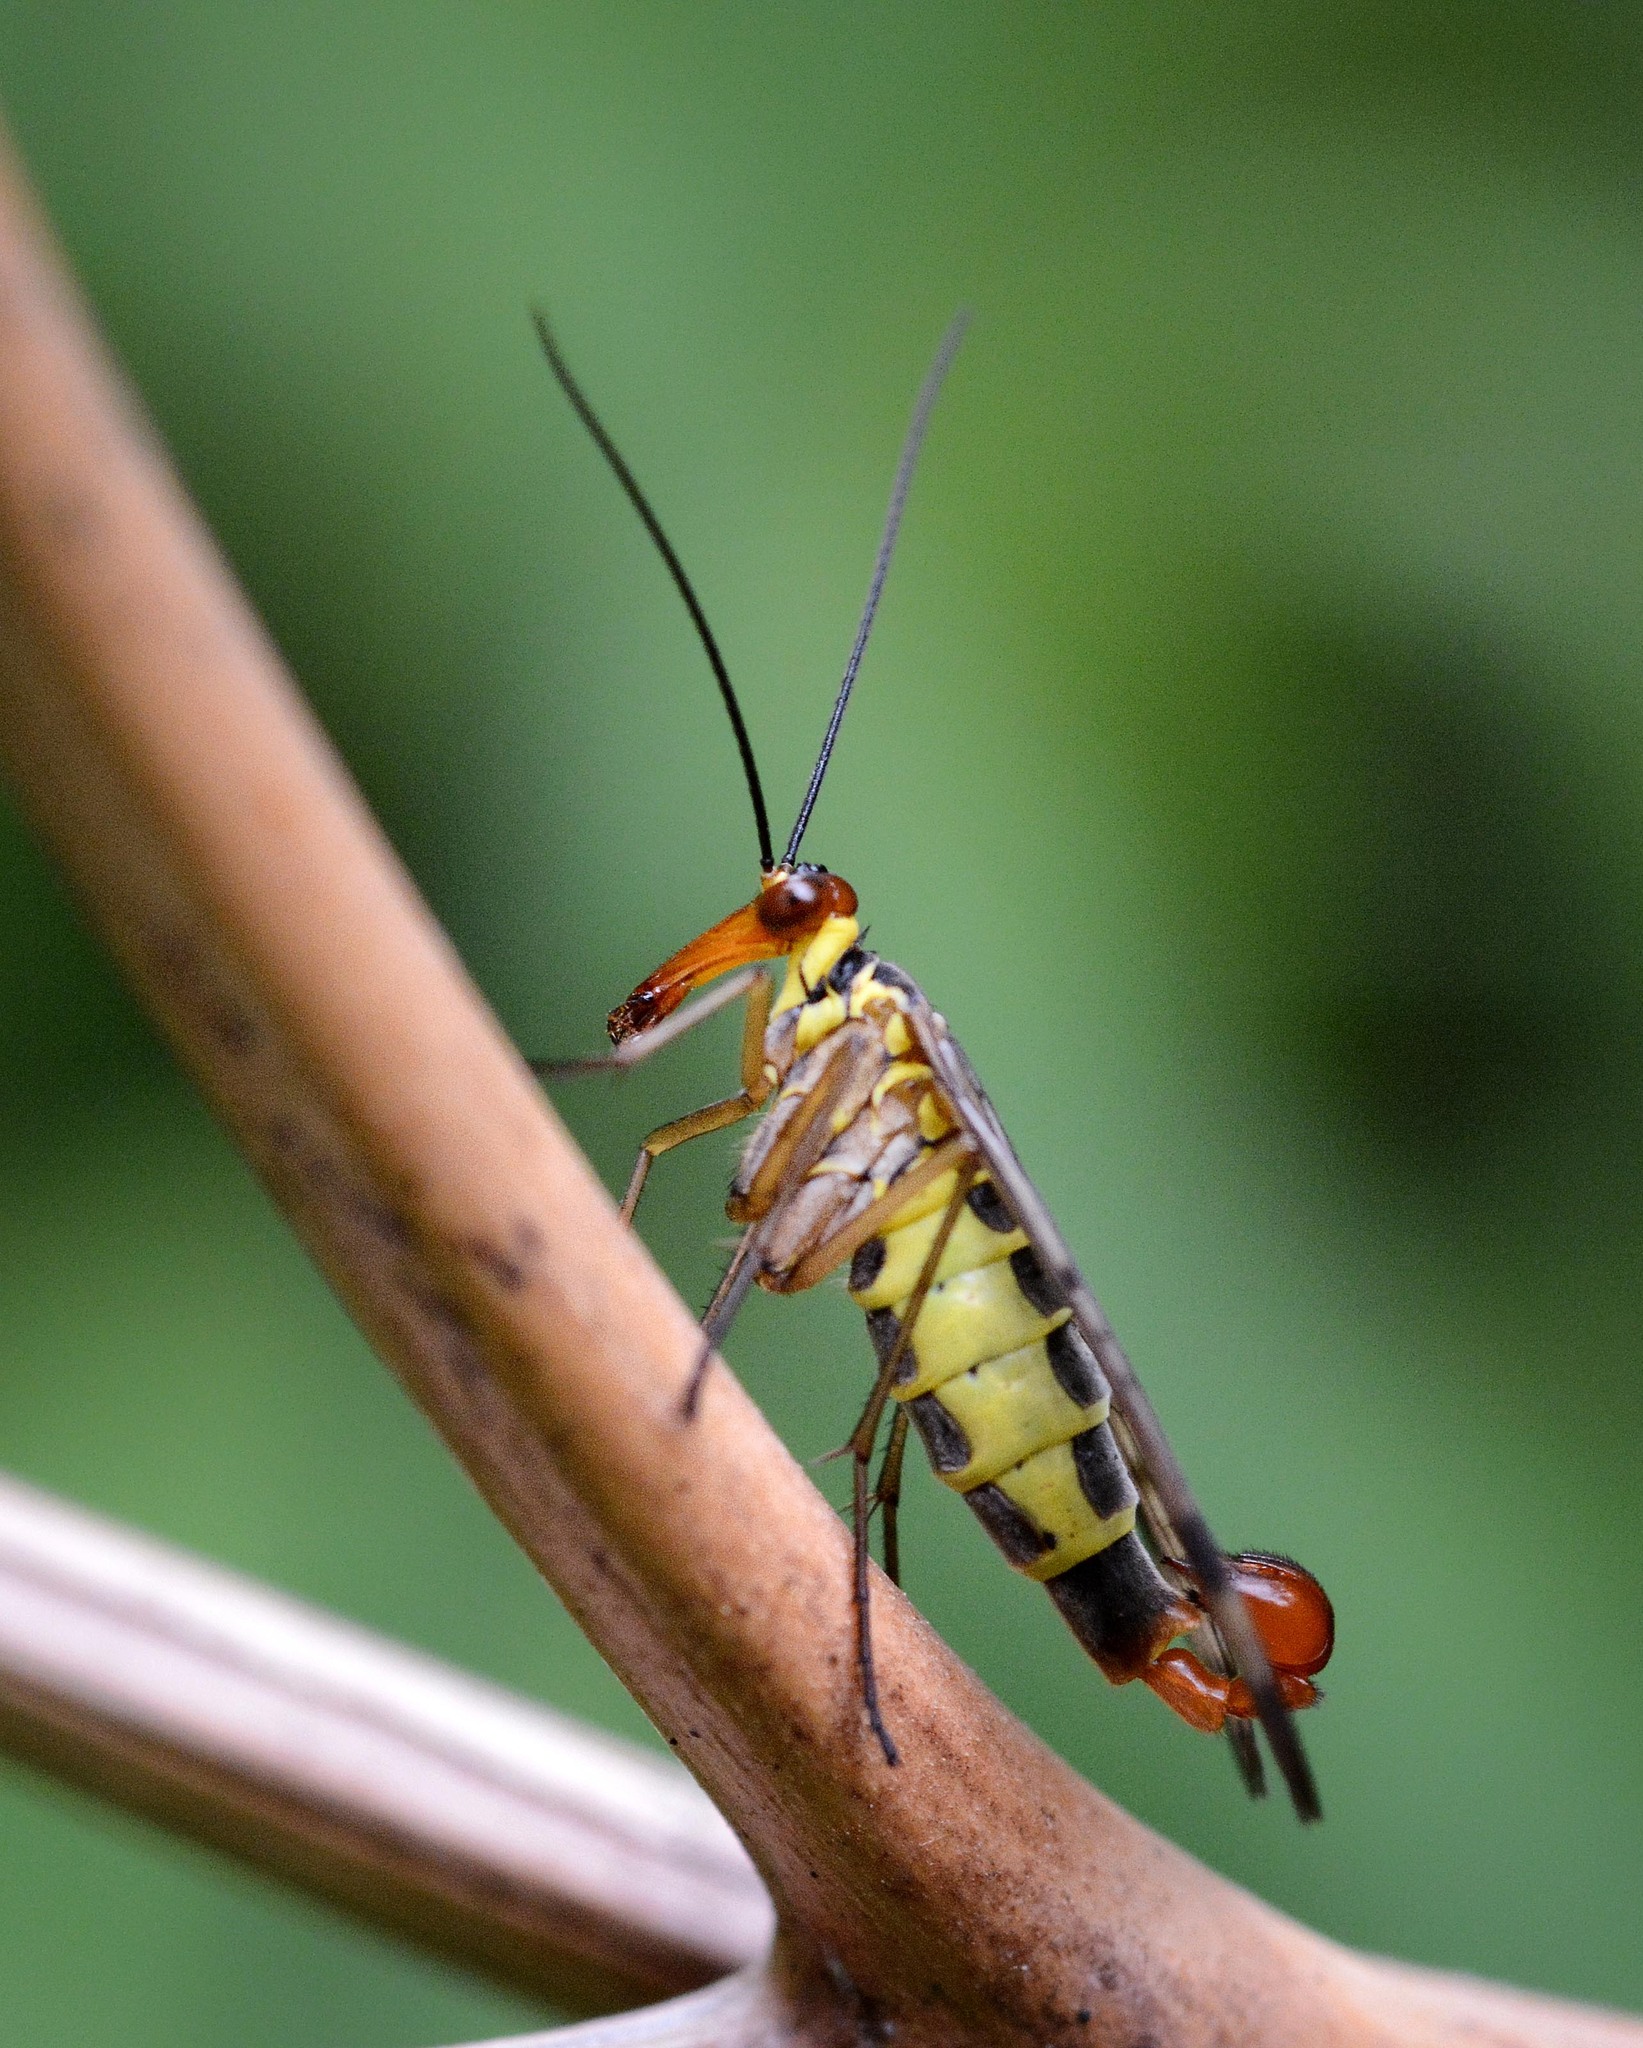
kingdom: Animalia
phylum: Arthropoda
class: Insecta
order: Mecoptera
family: Panorpidae
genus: Panorpa
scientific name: Panorpa
